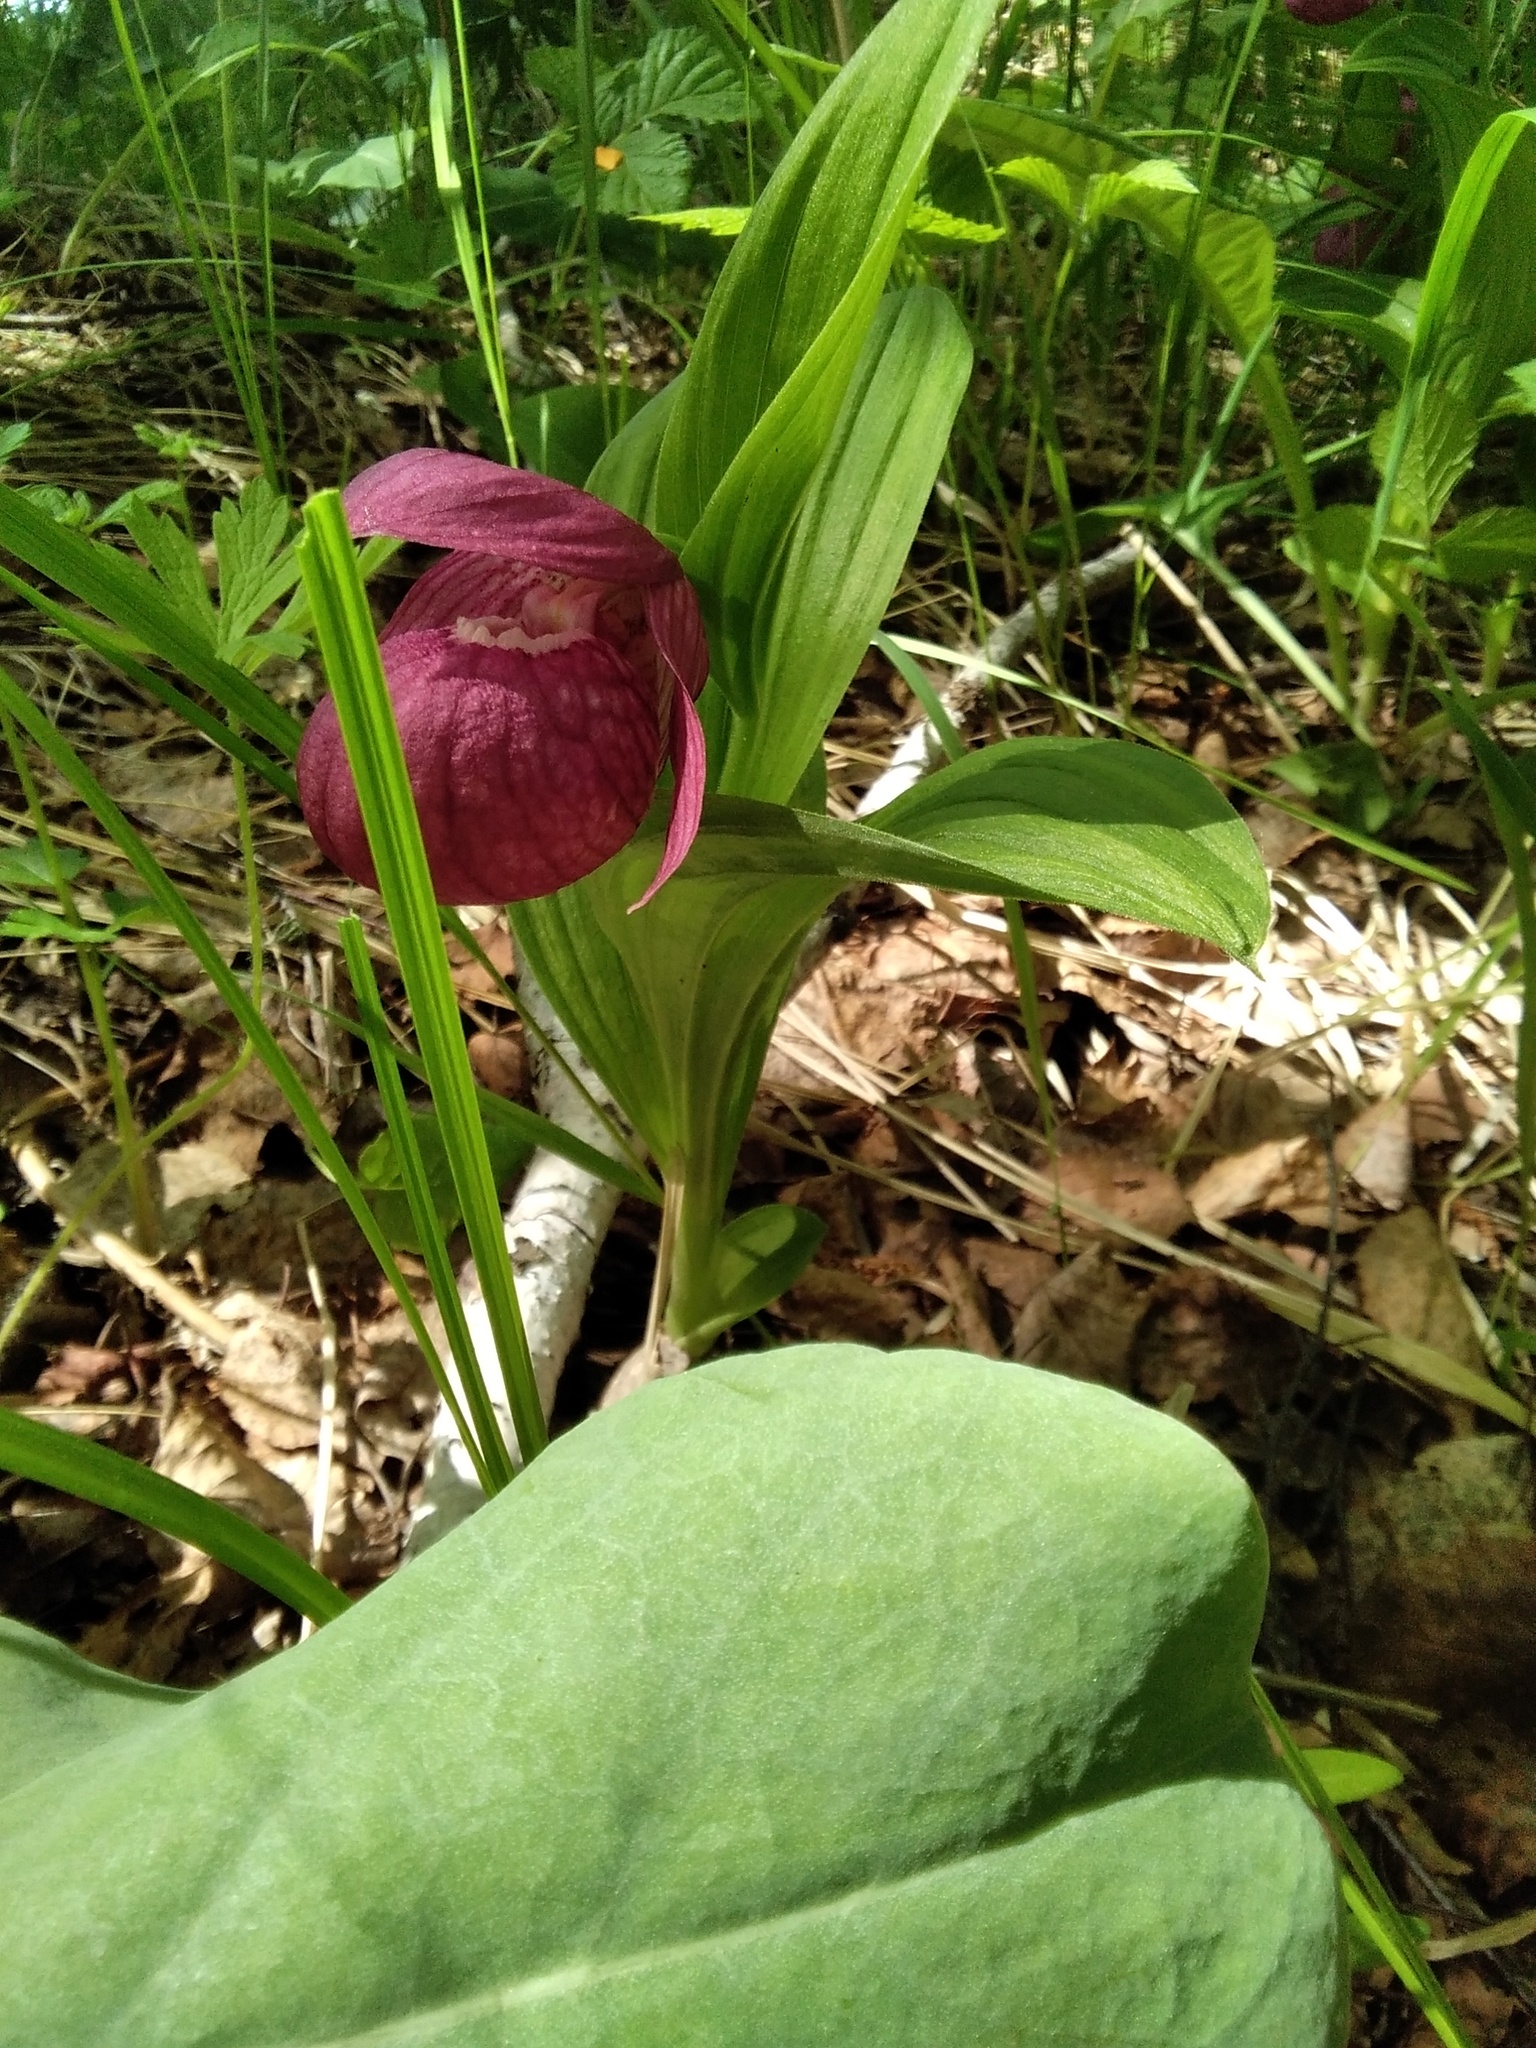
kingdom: Plantae
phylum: Tracheophyta
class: Liliopsida
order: Asparagales
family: Orchidaceae
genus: Cypripedium
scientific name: Cypripedium macranthos
